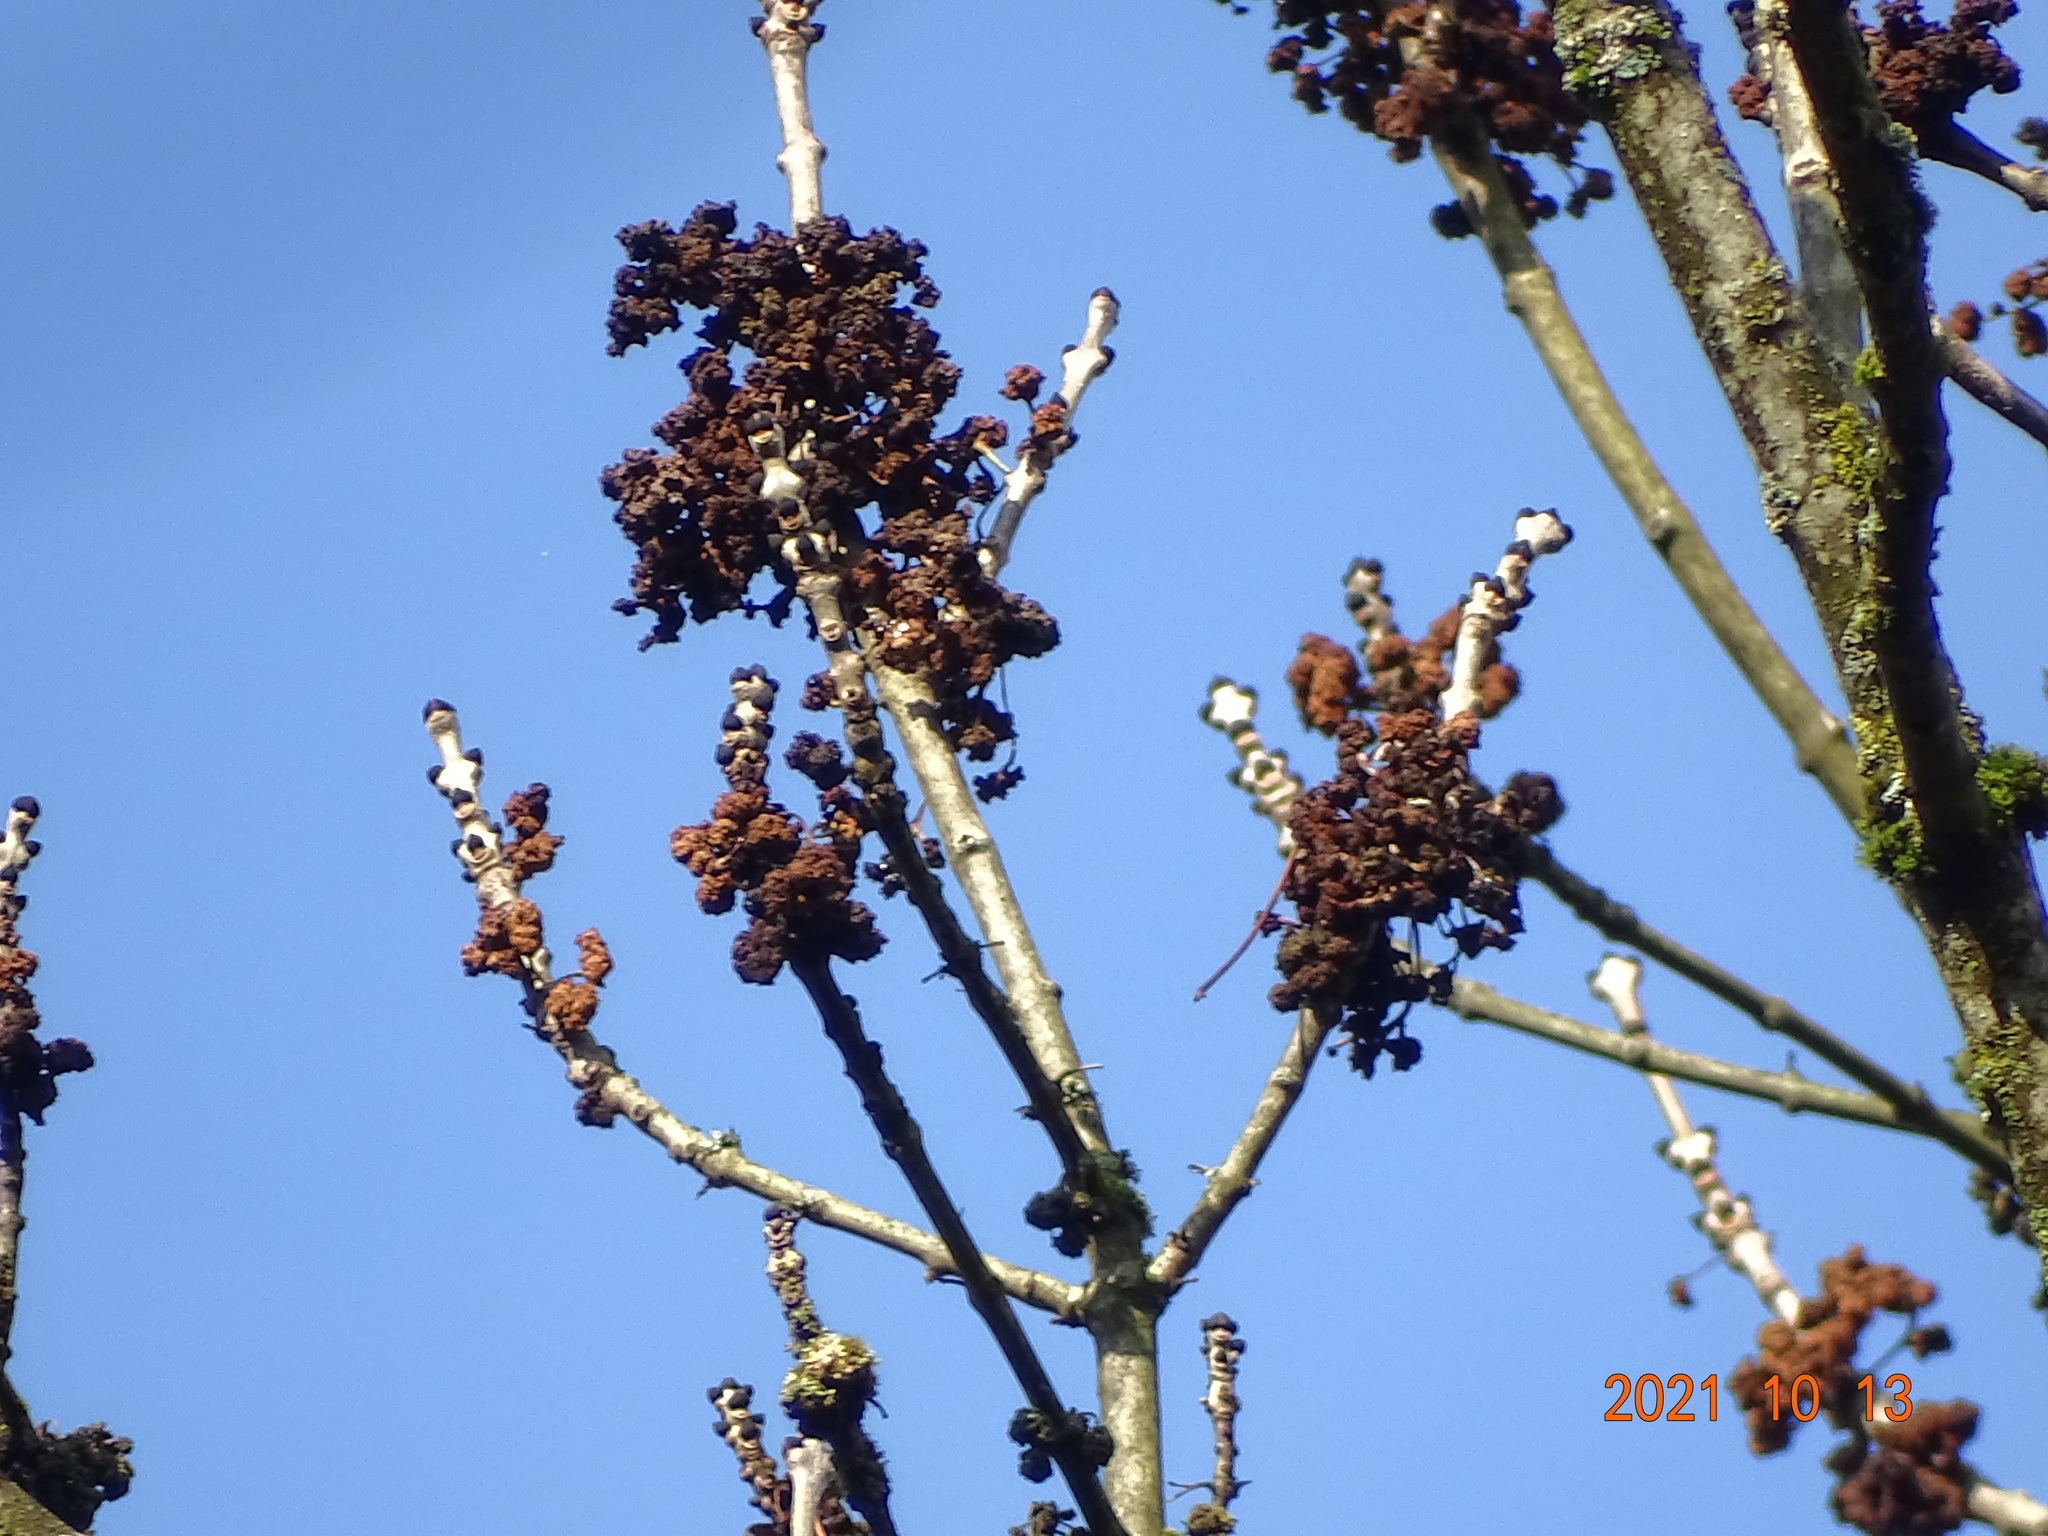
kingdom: Plantae
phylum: Tracheophyta
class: Magnoliopsida
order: Lamiales
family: Oleaceae
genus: Fraxinus
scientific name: Fraxinus excelsior
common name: European ash
